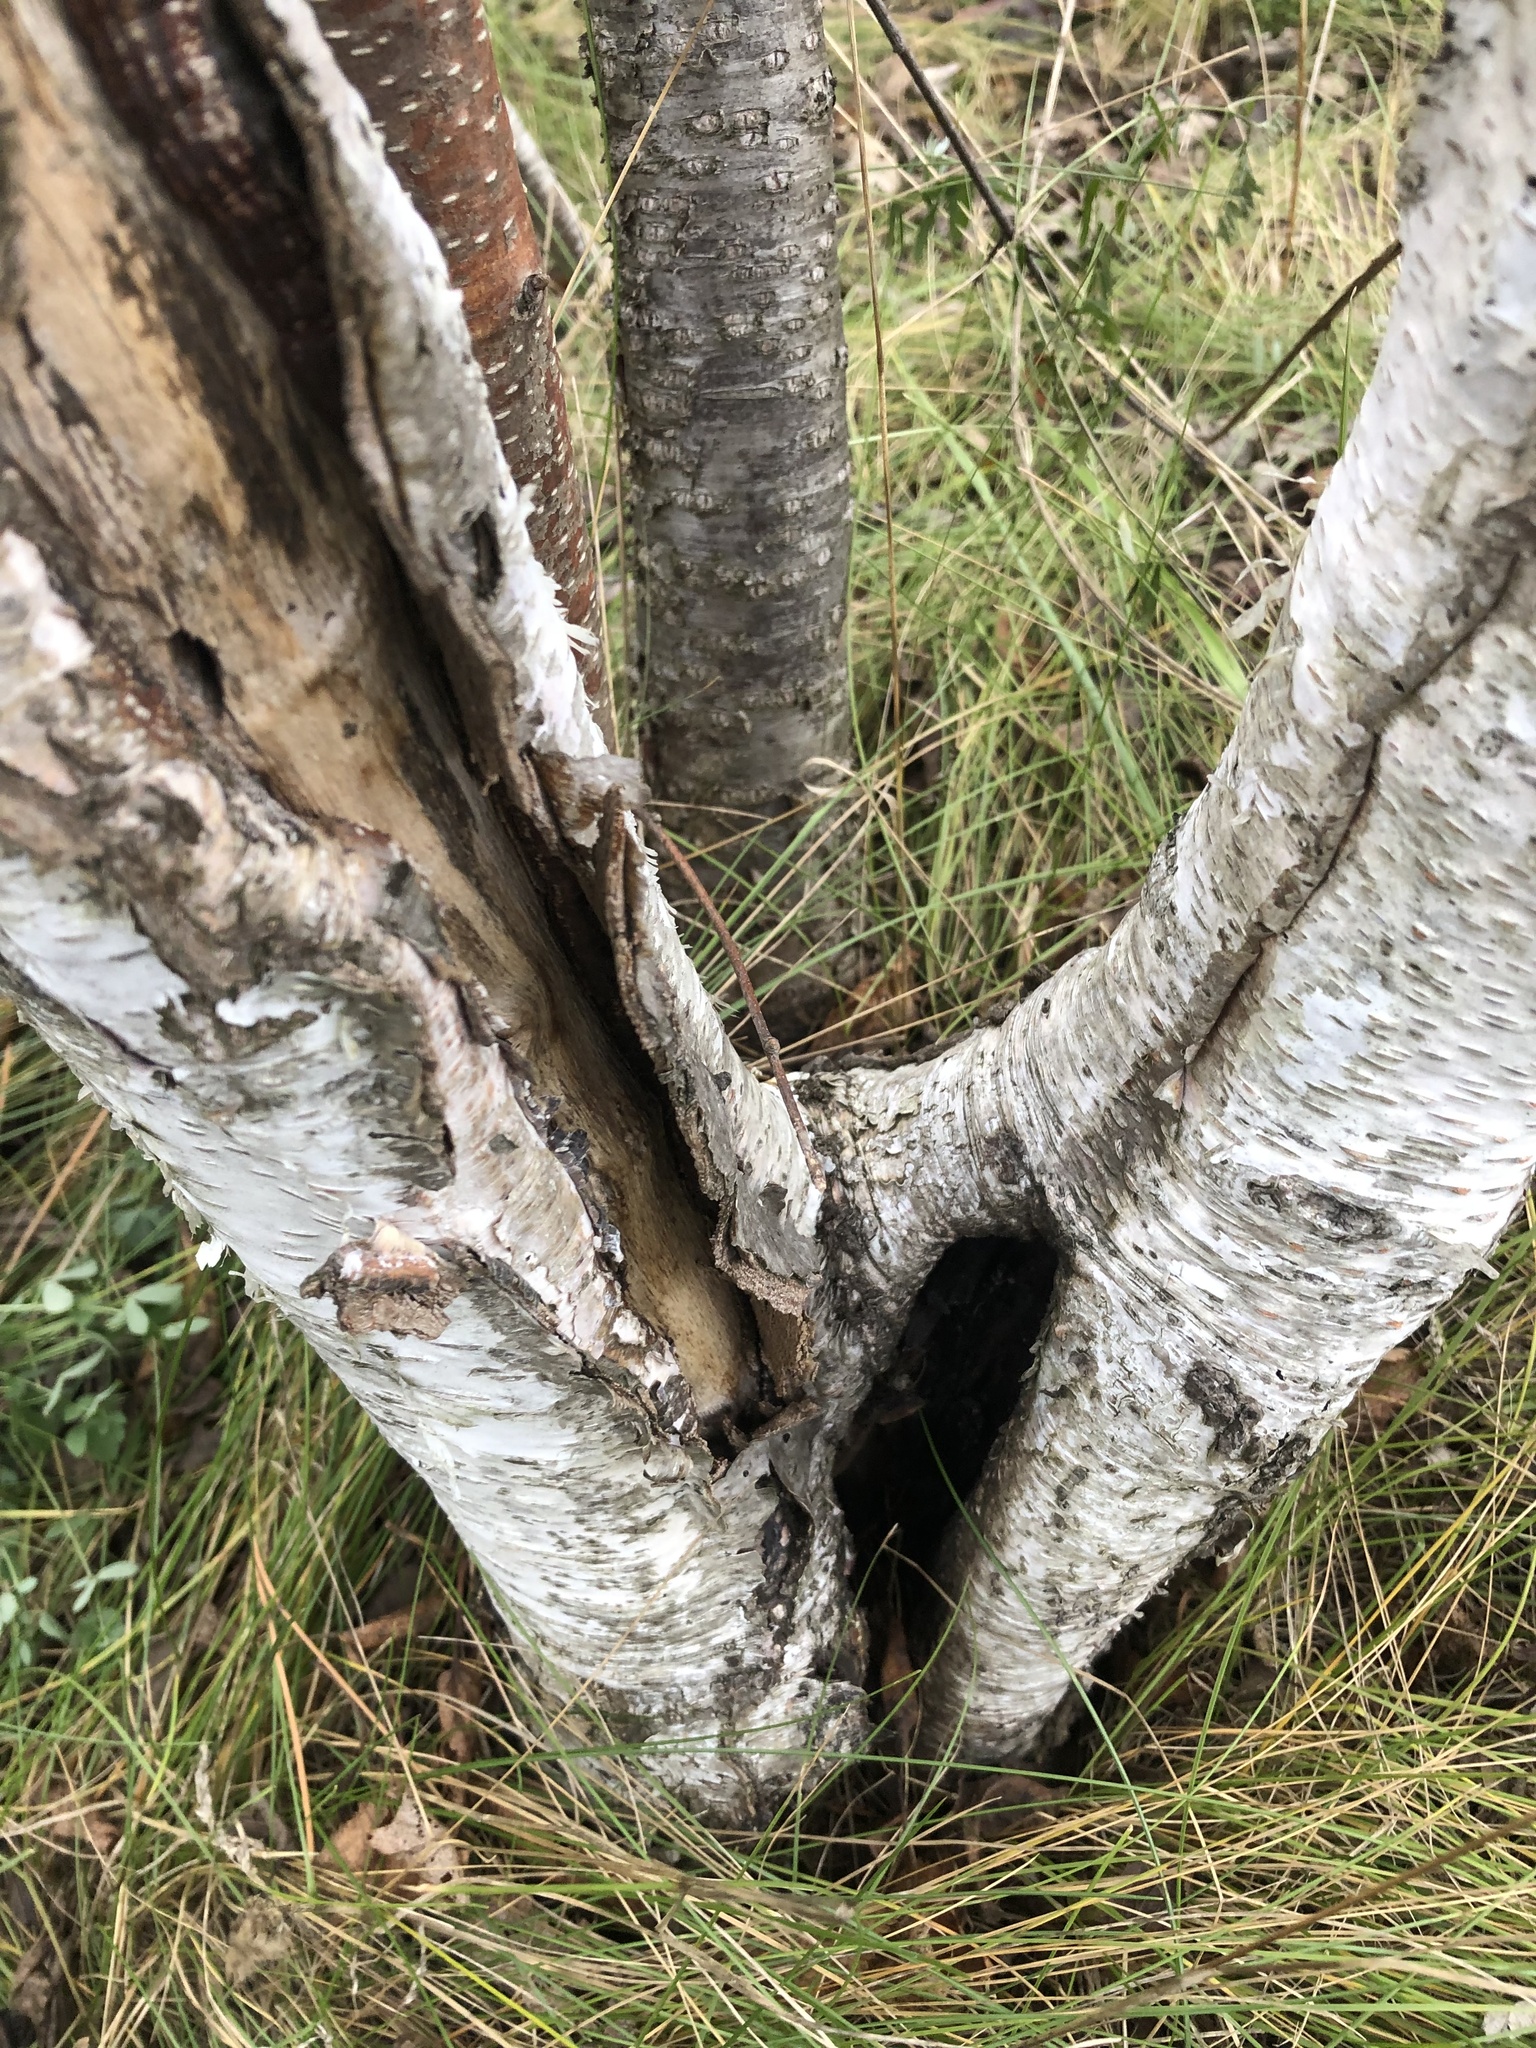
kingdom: Plantae
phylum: Tracheophyta
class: Magnoliopsida
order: Fagales
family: Betulaceae
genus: Betula
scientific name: Betula papyrifera
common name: Paper birch
